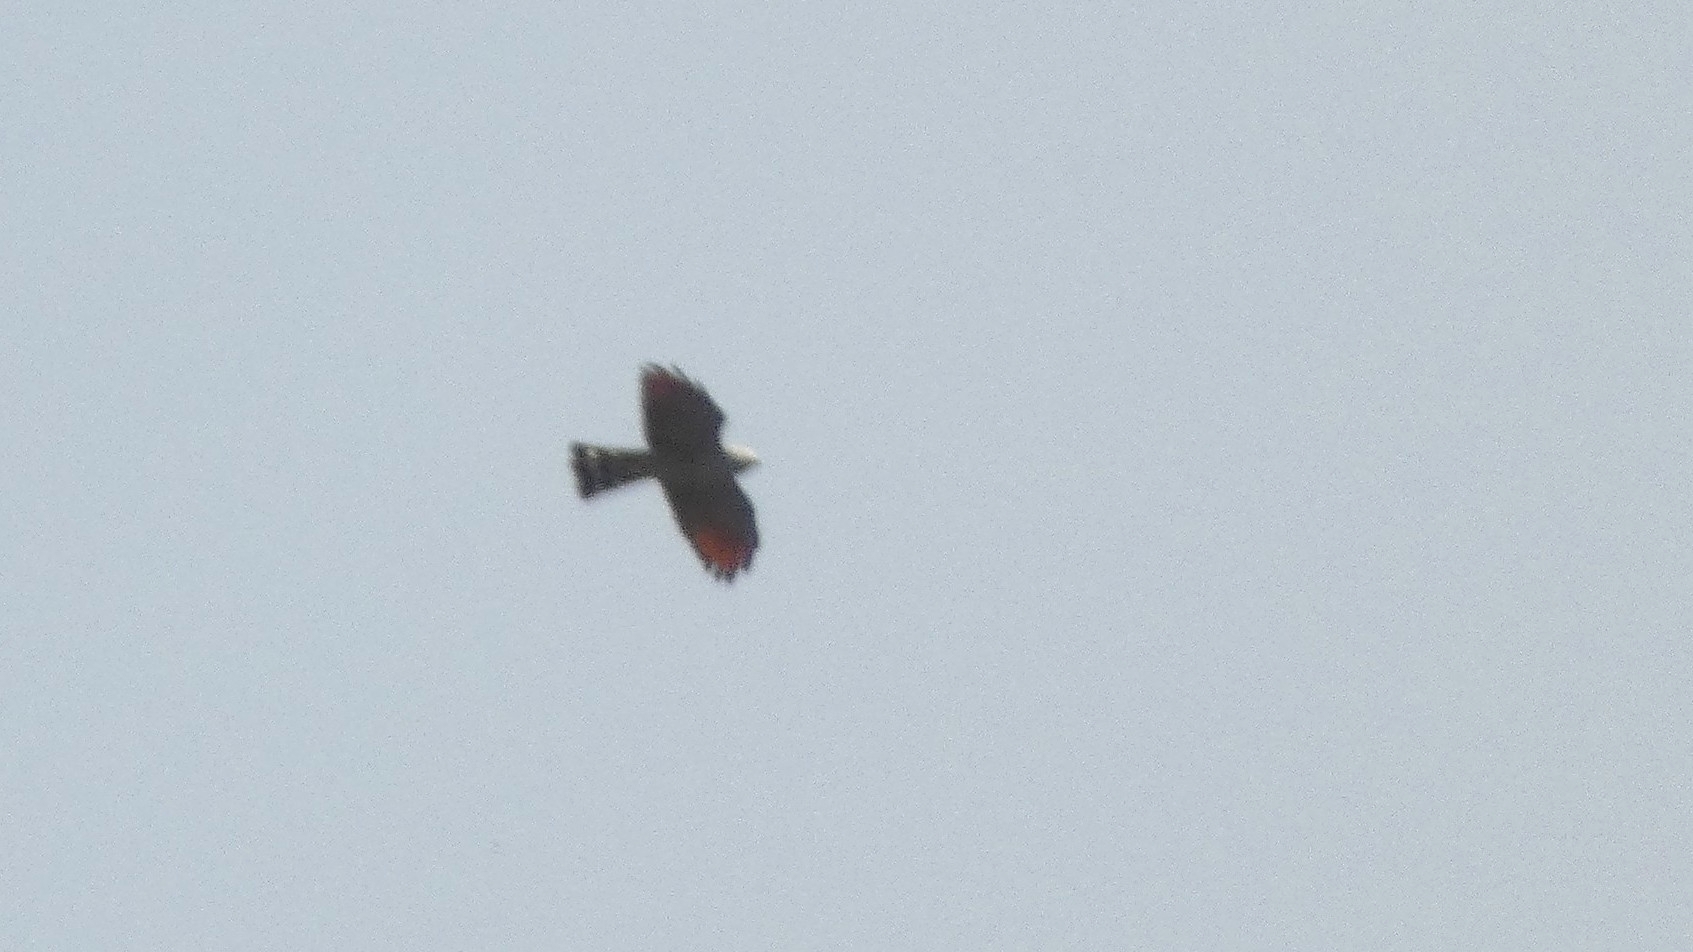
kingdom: Animalia
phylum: Chordata
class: Aves
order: Accipitriformes
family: Accipitridae
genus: Ictinia
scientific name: Ictinia plumbea
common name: Plumbeous kite
